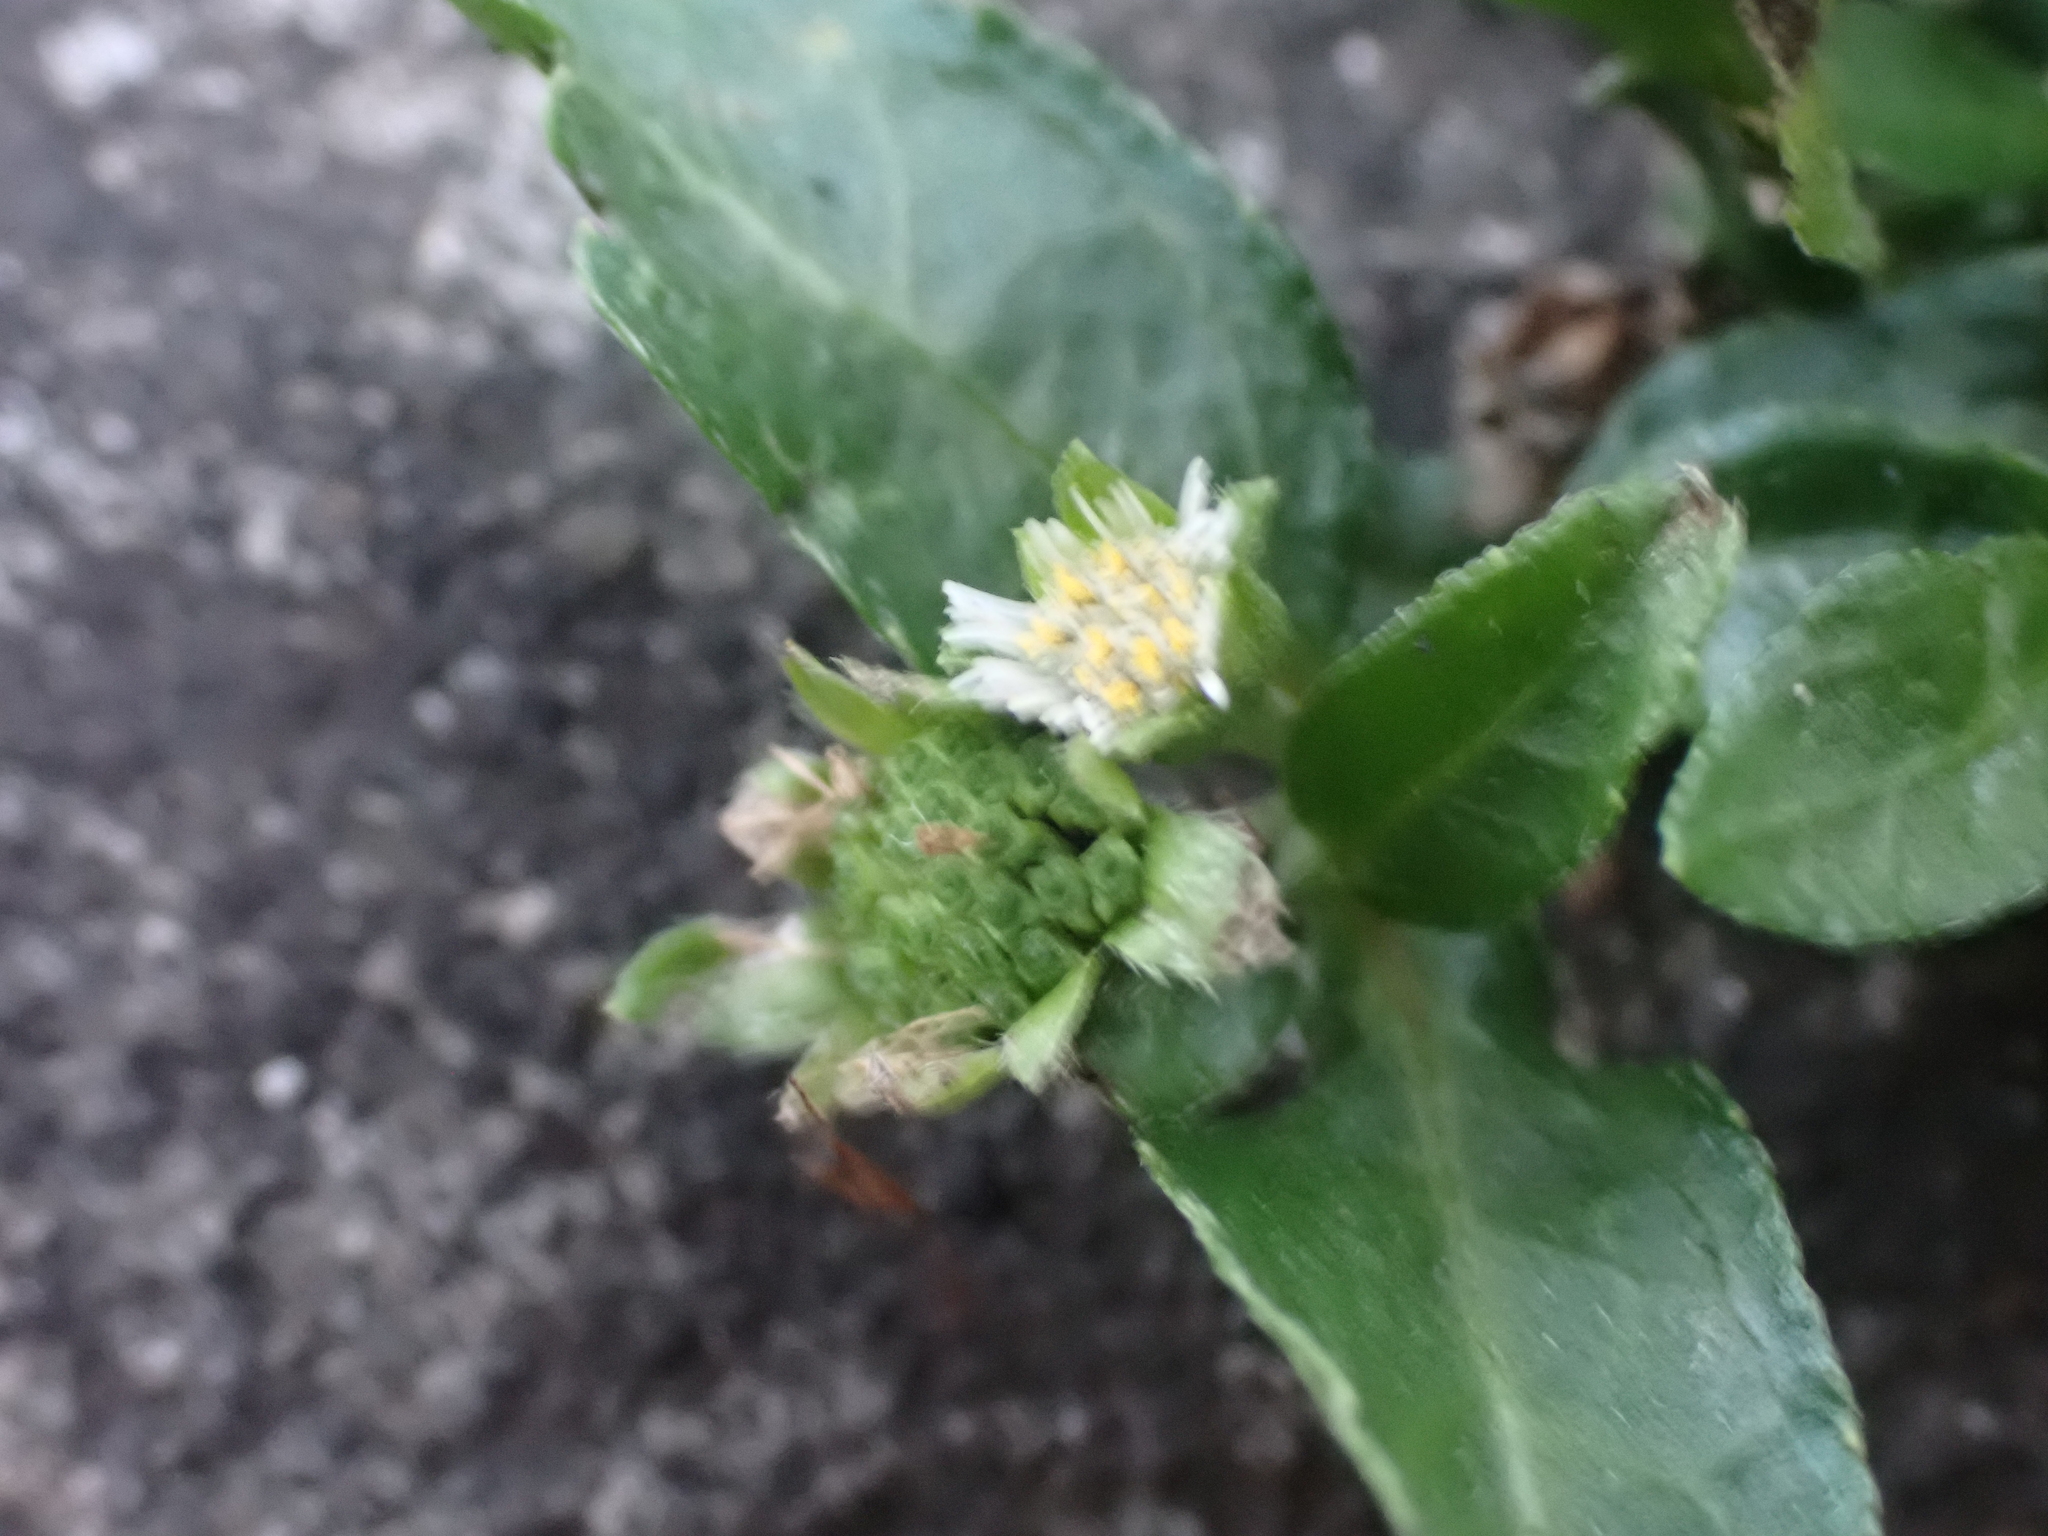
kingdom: Plantae
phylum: Tracheophyta
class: Magnoliopsida
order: Asterales
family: Asteraceae
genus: Eclipta
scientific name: Eclipta prostrata
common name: False daisy
